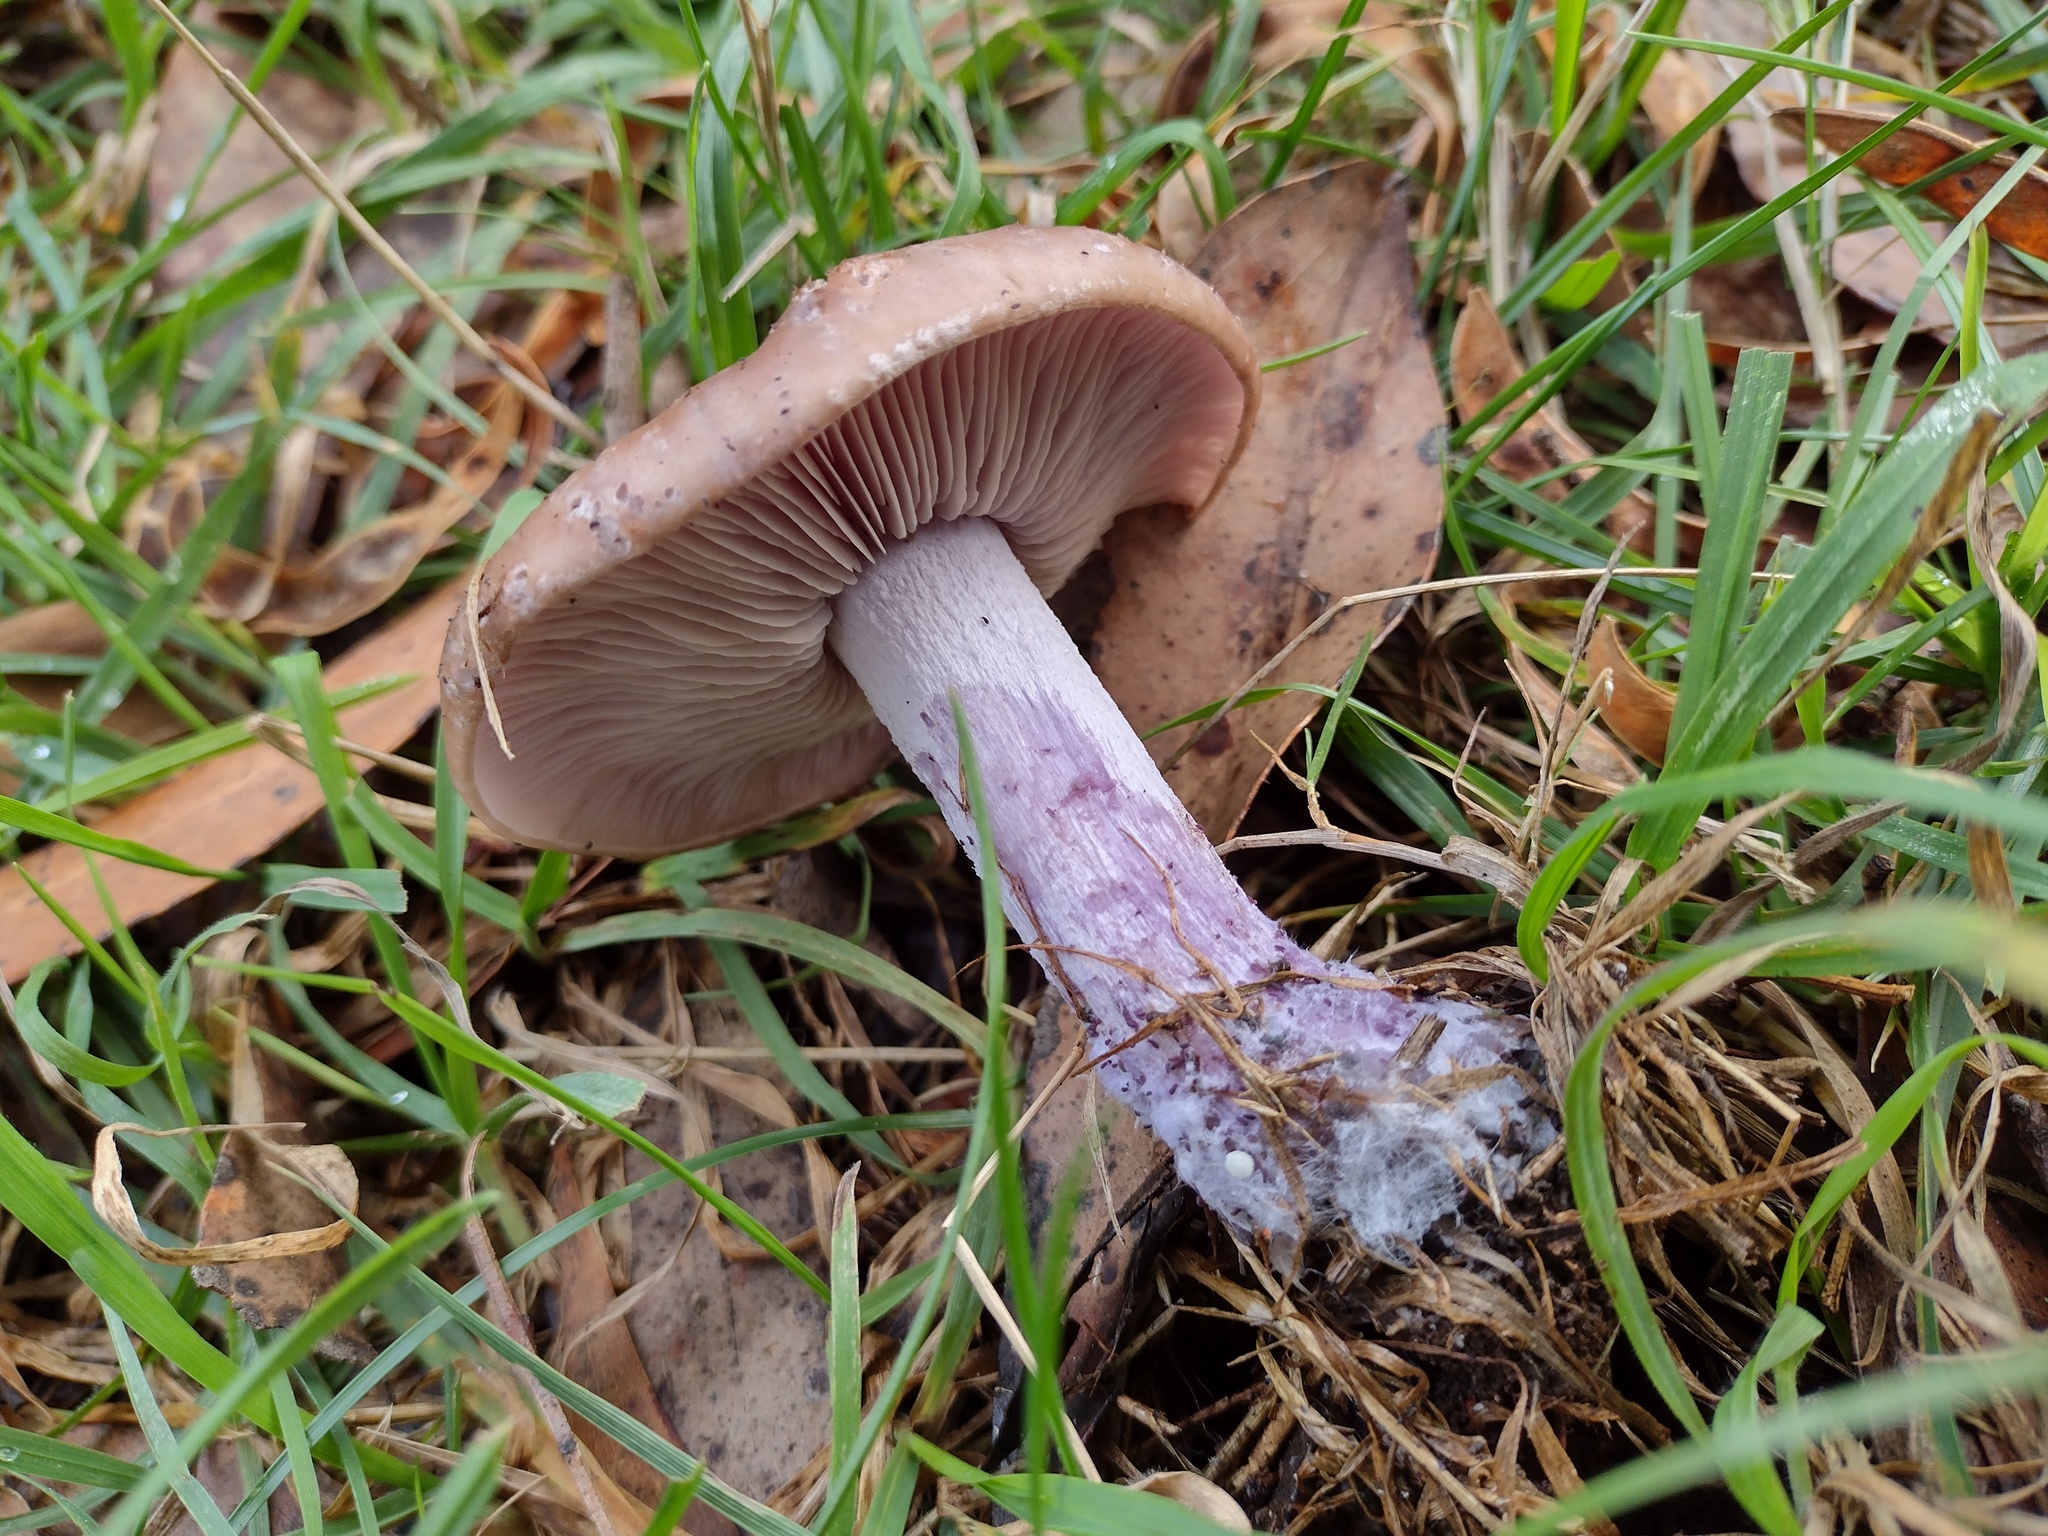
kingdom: Fungi
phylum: Basidiomycota
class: Agaricomycetes
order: Agaricales
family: Tricholomataceae
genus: Collybia
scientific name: Collybia
